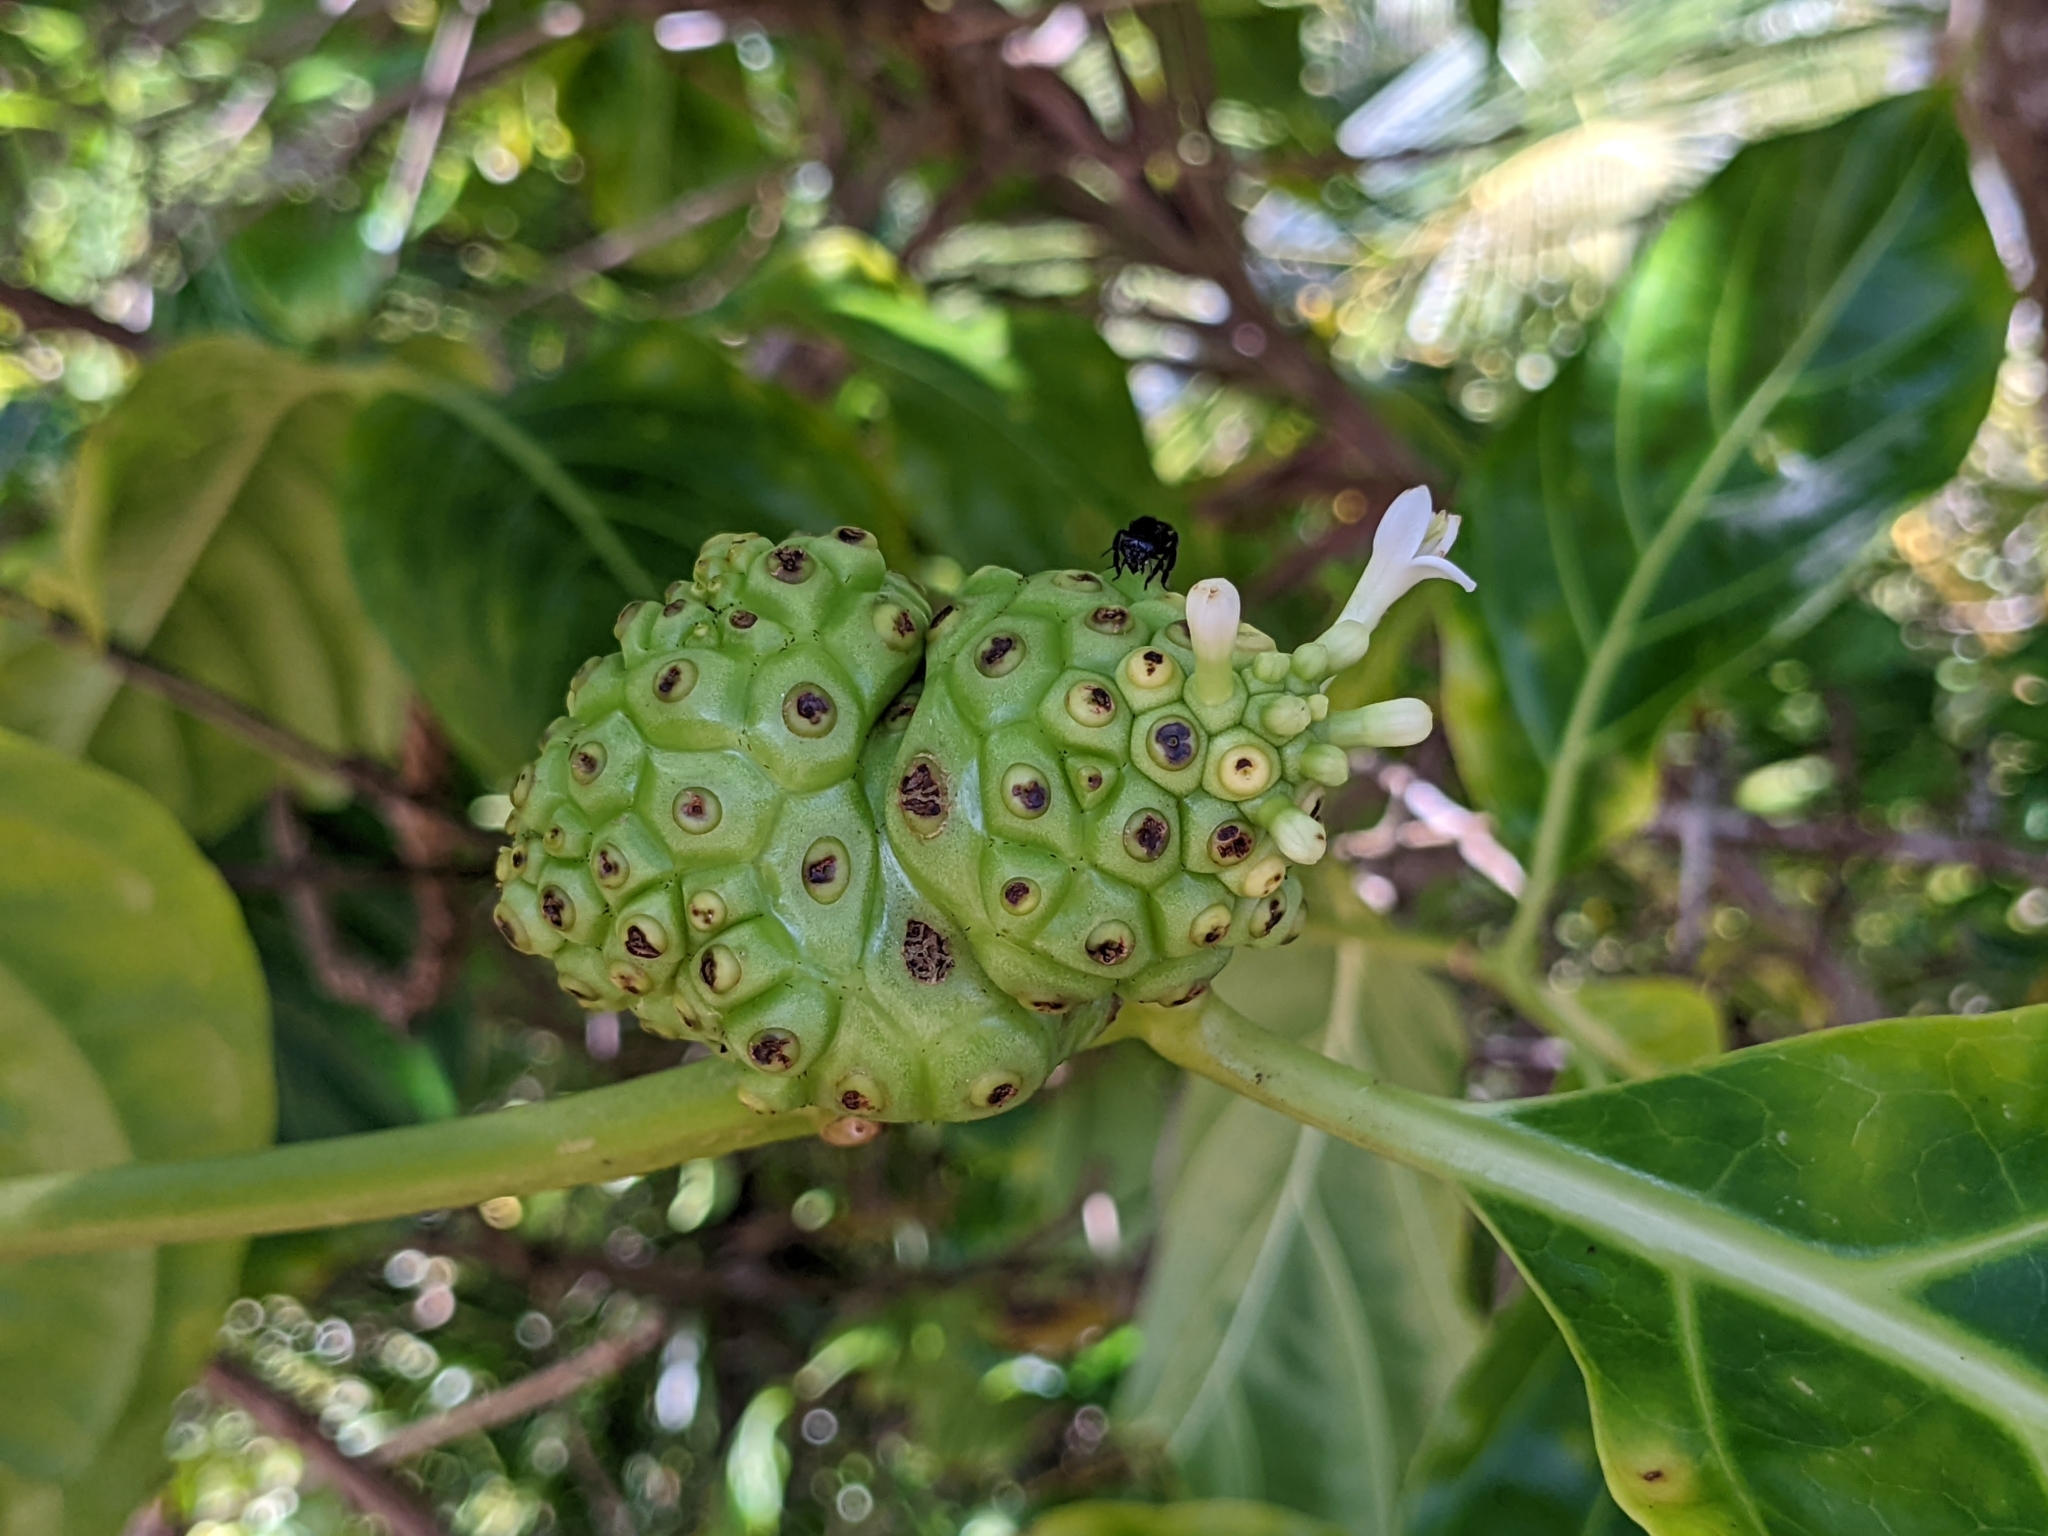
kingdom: Plantae
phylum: Tracheophyta
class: Magnoliopsida
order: Gentianales
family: Rubiaceae
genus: Morinda
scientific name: Morinda citrifolia
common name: Indian-mulberry
